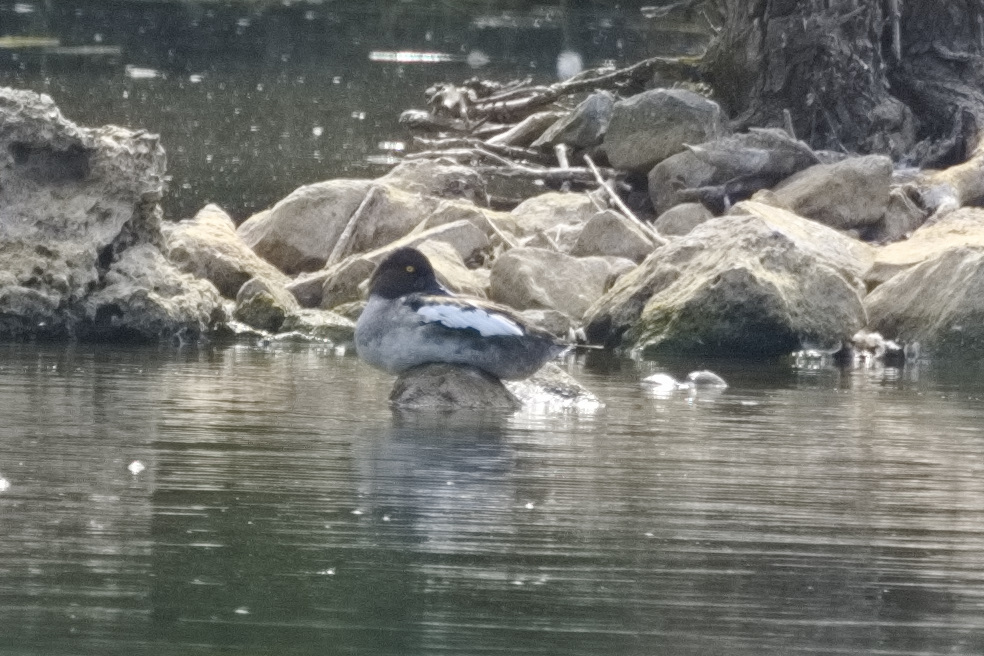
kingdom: Animalia
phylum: Chordata
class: Aves
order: Anseriformes
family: Anatidae
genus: Bucephala
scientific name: Bucephala clangula
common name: Common goldeneye
